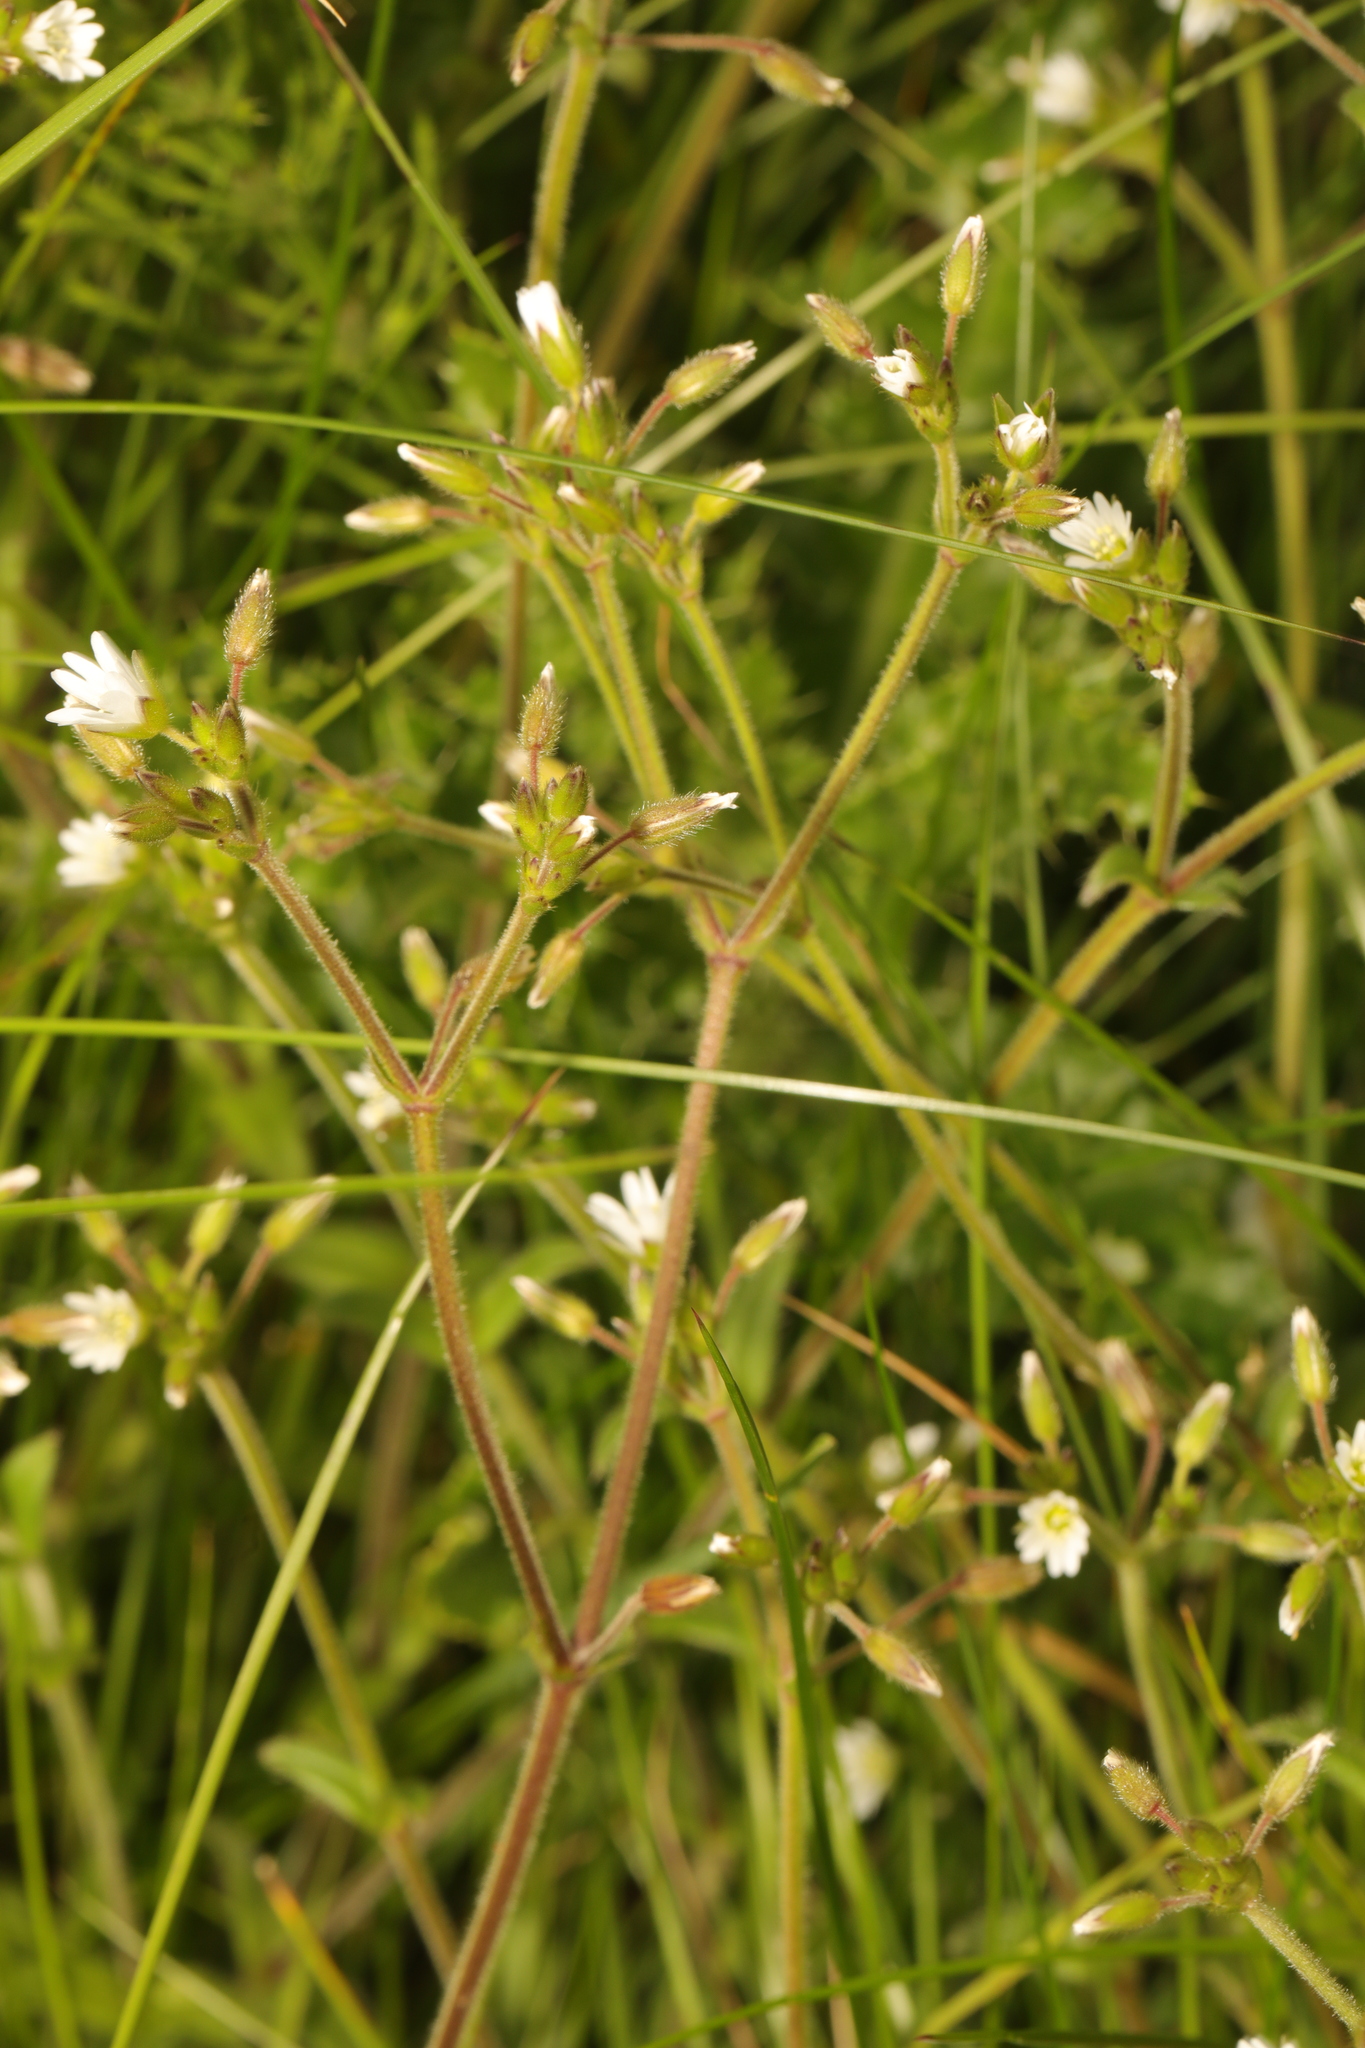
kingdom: Plantae
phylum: Tracheophyta
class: Magnoliopsida
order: Caryophyllales
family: Caryophyllaceae
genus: Cerastium
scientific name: Cerastium fontanum
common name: Common mouse-ear
